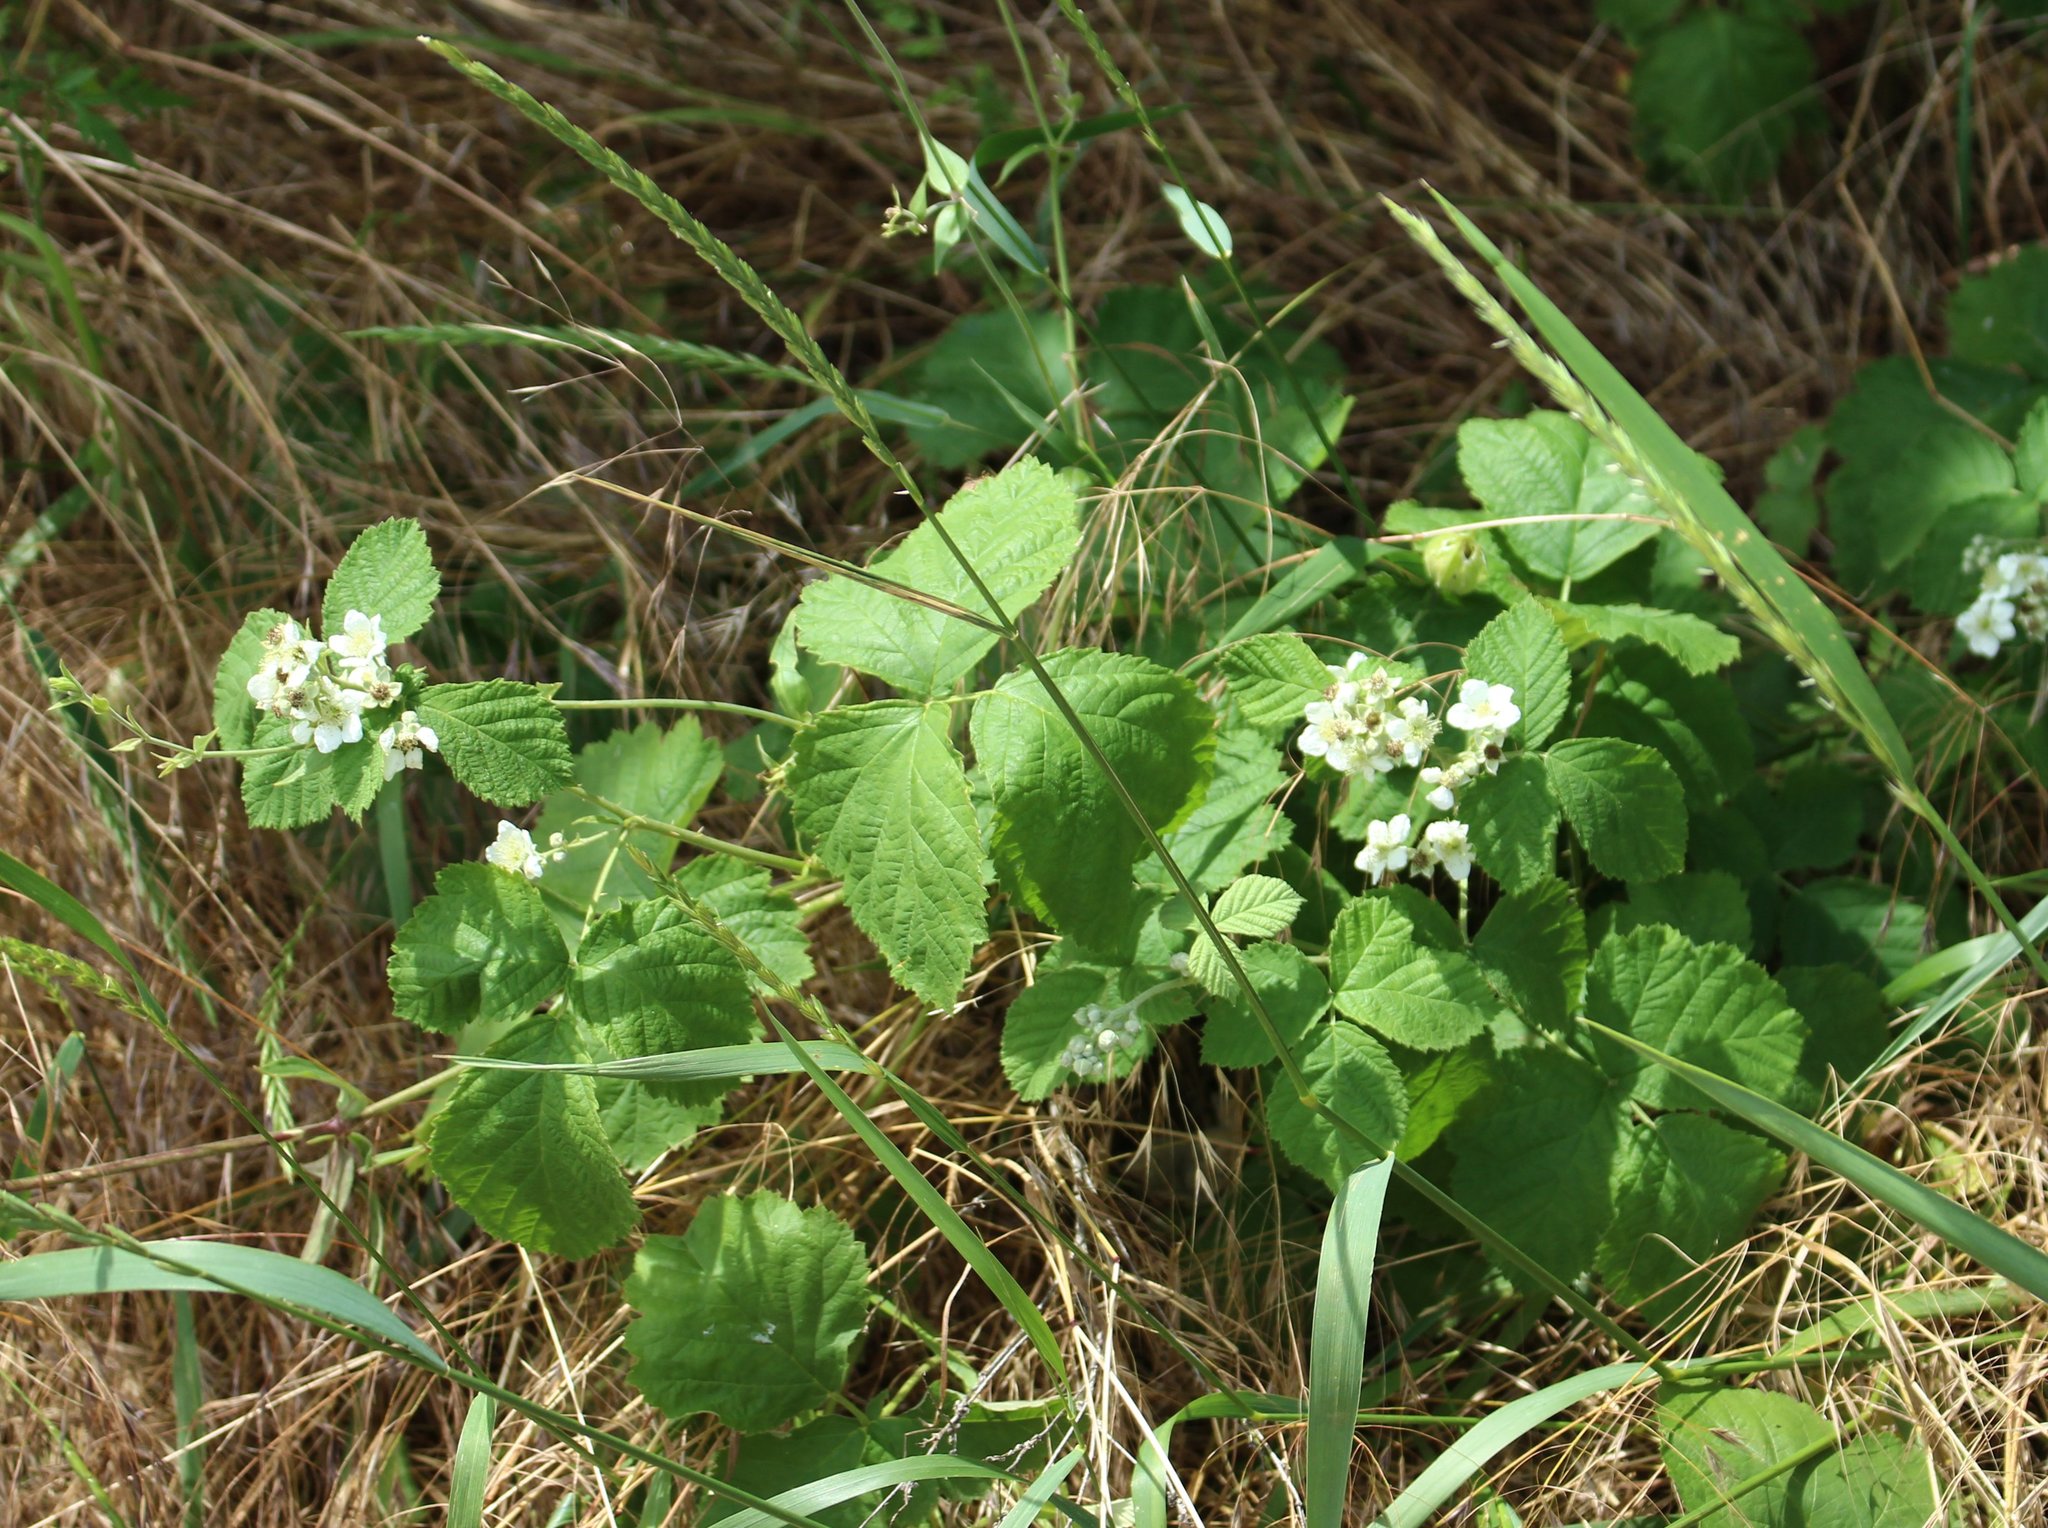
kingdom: Plantae
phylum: Tracheophyta
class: Magnoliopsida
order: Rosales
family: Rosaceae
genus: Rubus
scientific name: Rubus caesius
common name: Dewberry
